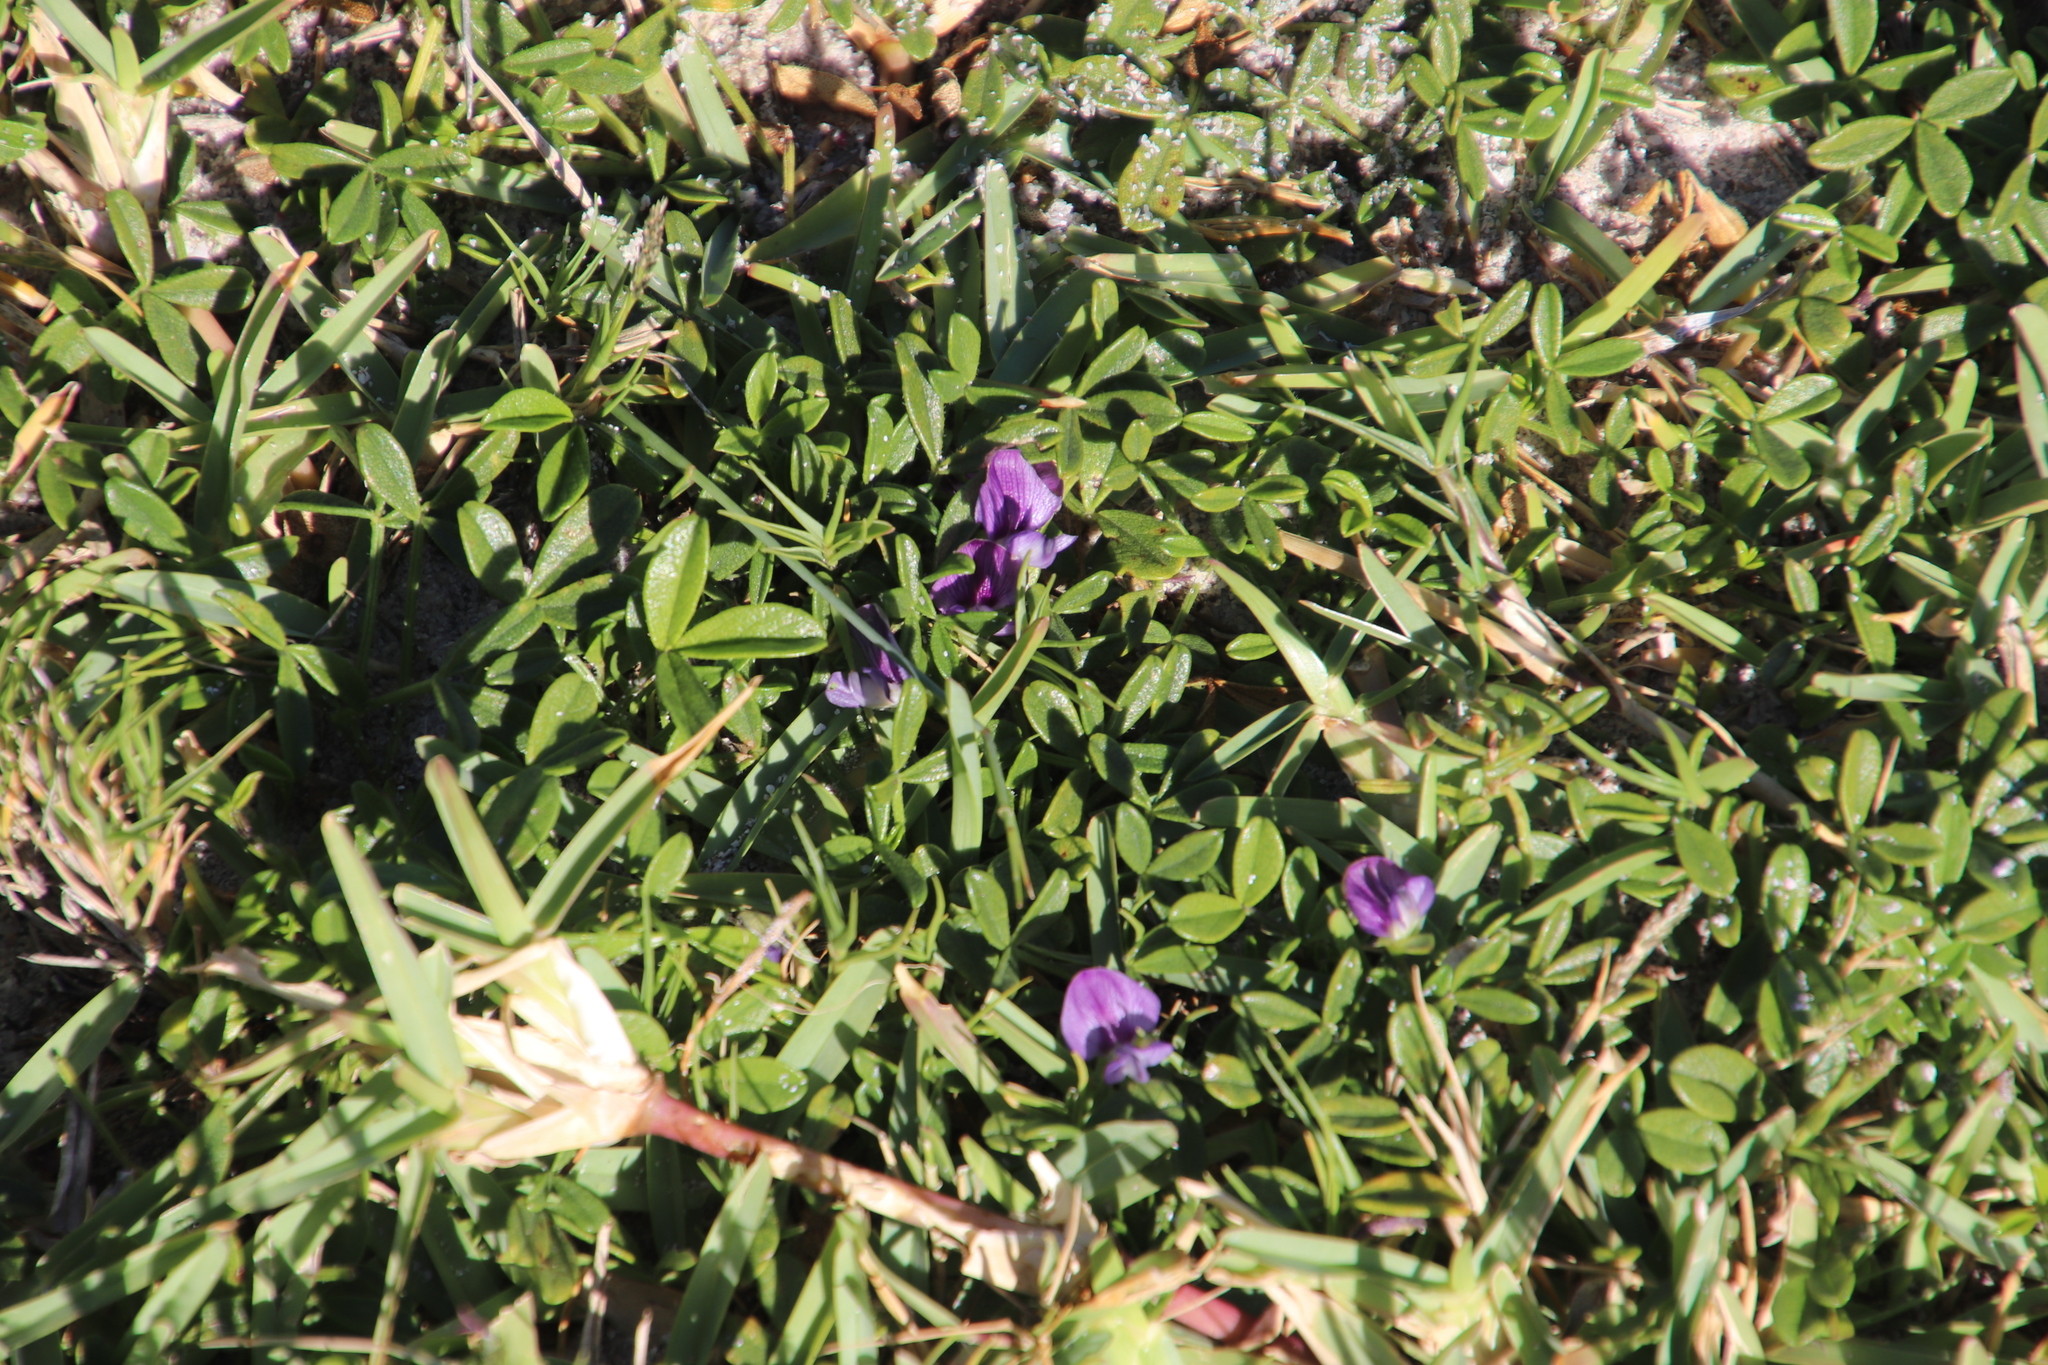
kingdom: Plantae
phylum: Tracheophyta
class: Magnoliopsida
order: Fabales
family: Fabaceae
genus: Psoralea
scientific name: Psoralea repens
